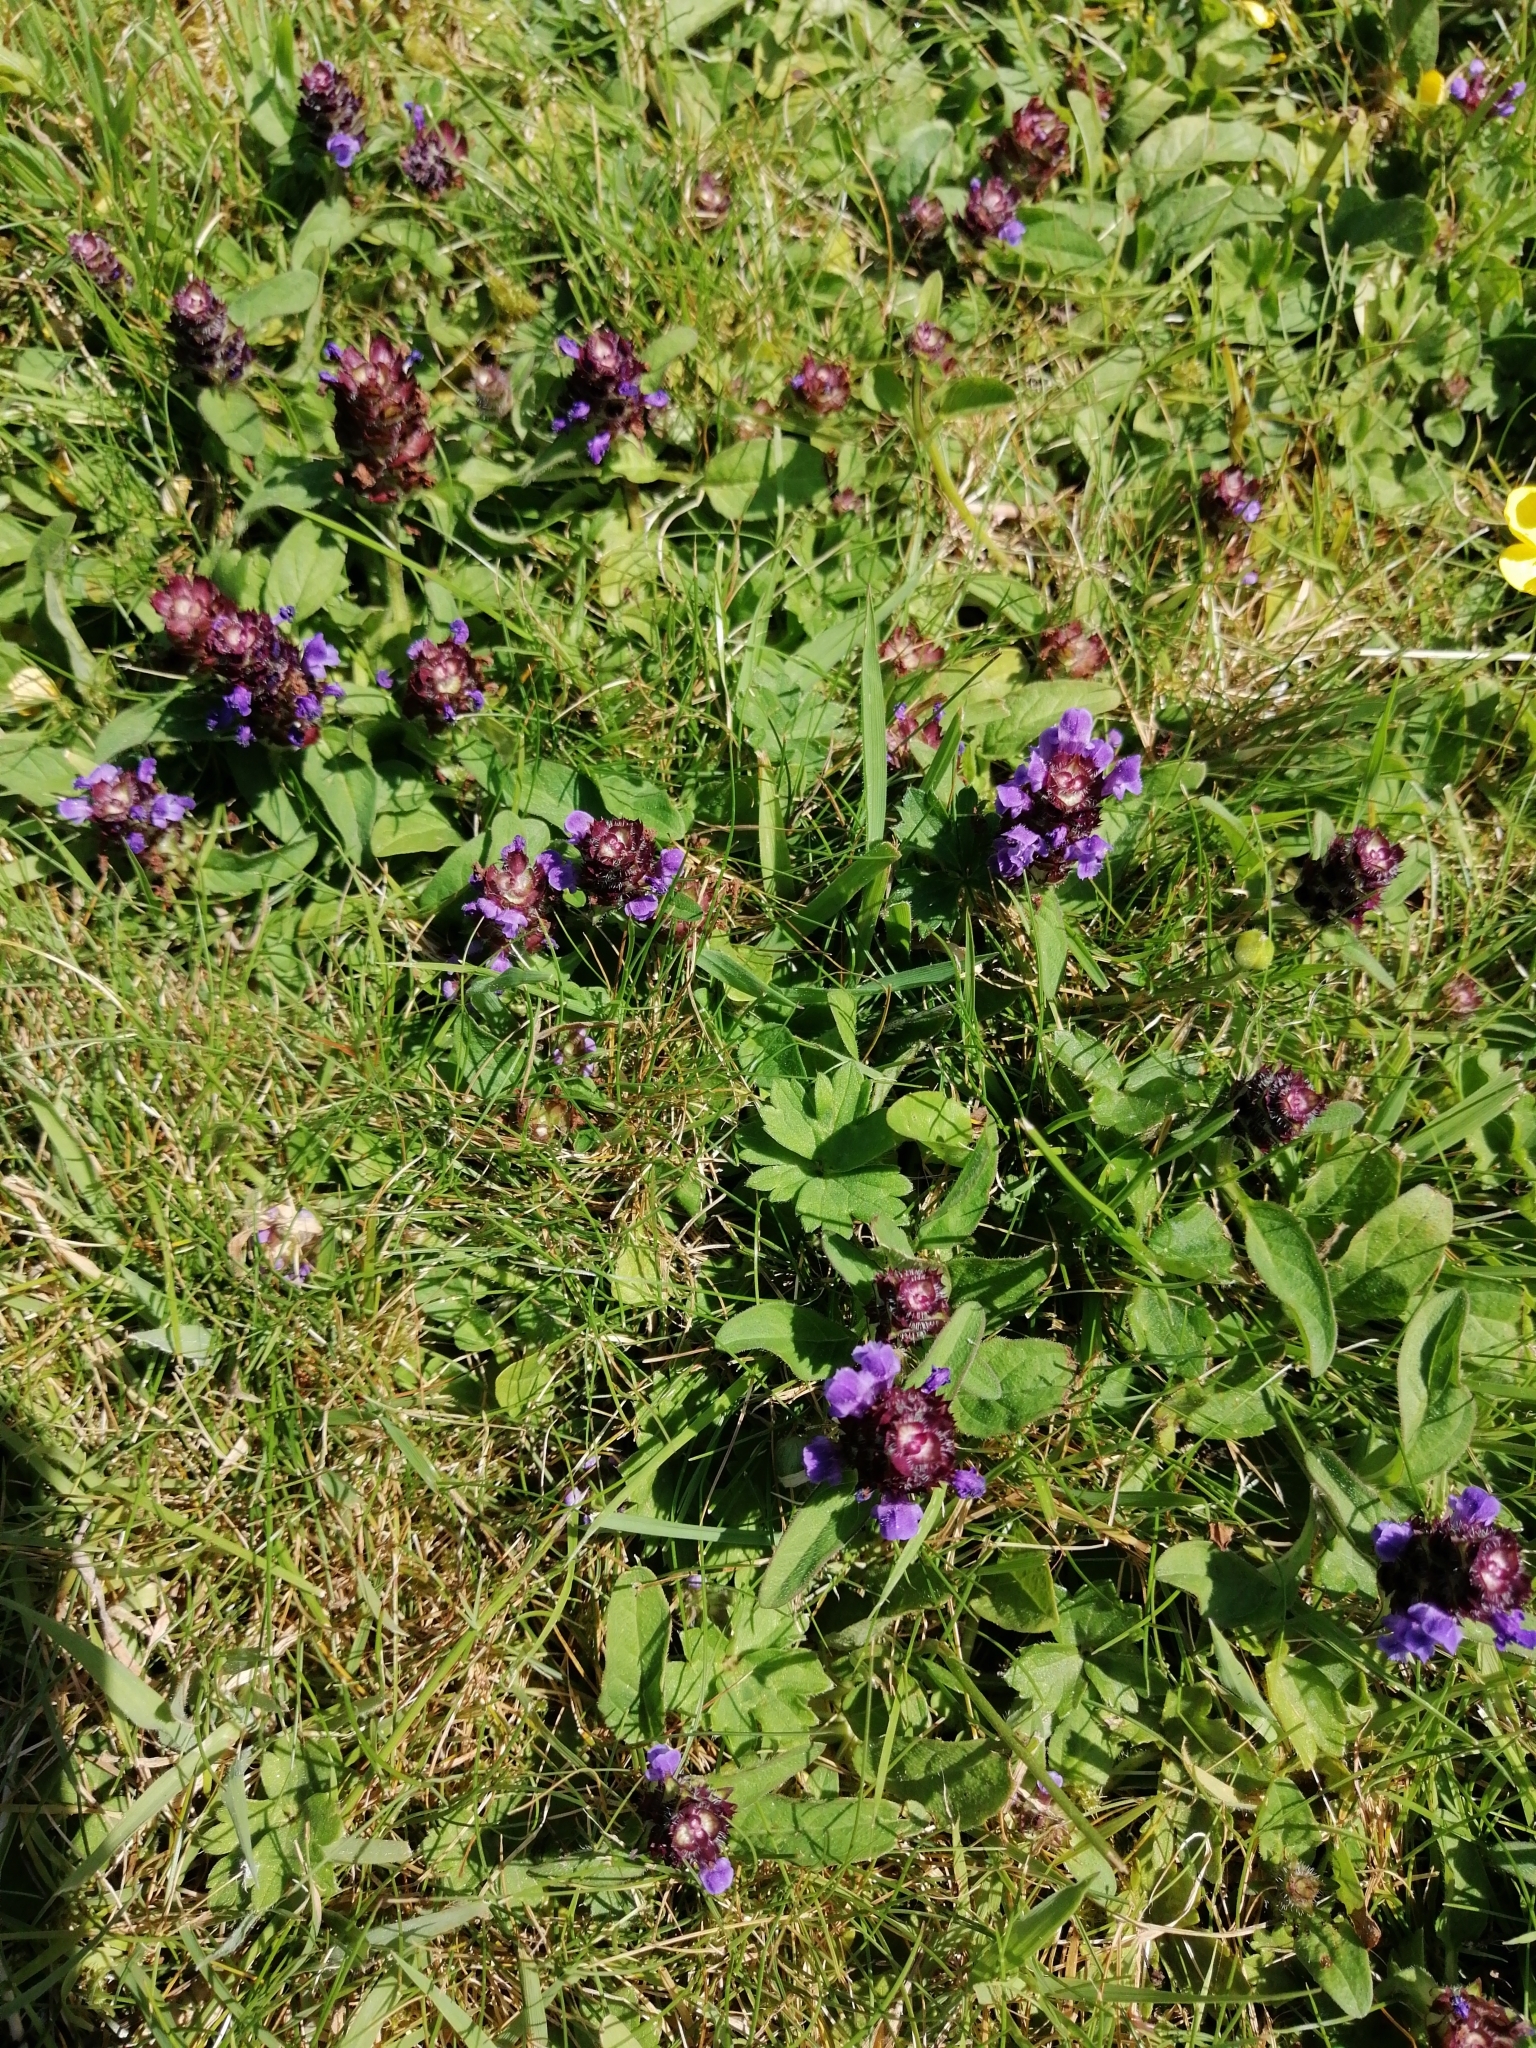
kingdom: Plantae
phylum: Tracheophyta
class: Magnoliopsida
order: Lamiales
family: Lamiaceae
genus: Prunella
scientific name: Prunella vulgaris
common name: Heal-all
